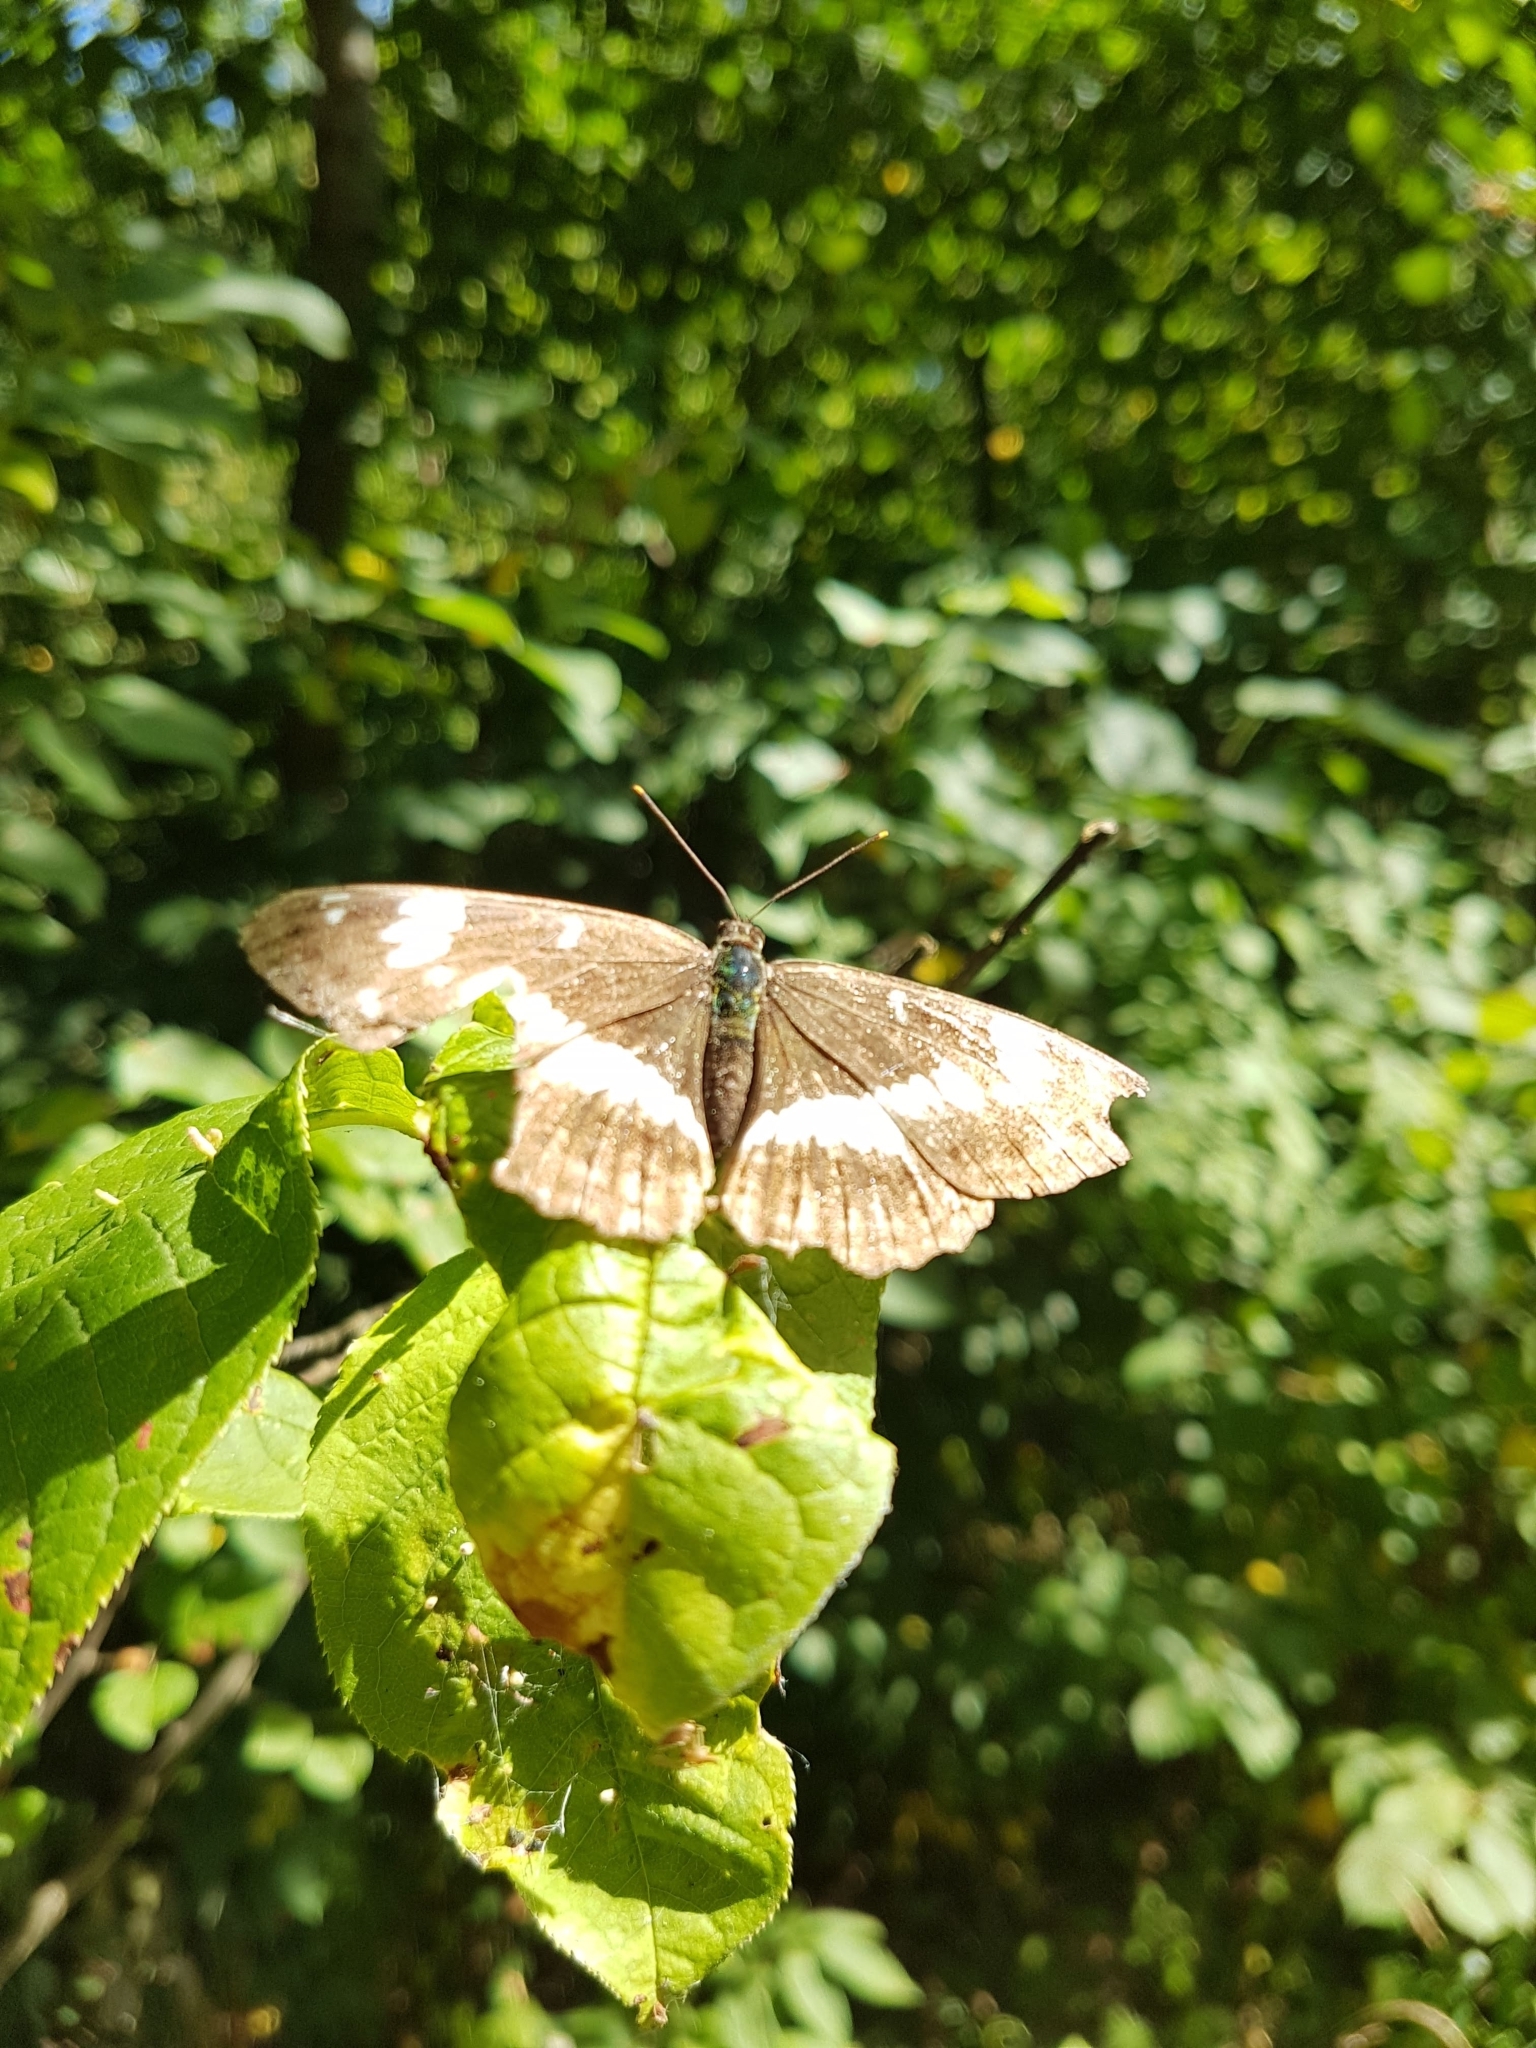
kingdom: Animalia
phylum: Arthropoda
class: Insecta
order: Lepidoptera
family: Nymphalidae
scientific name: Nymphalidae
